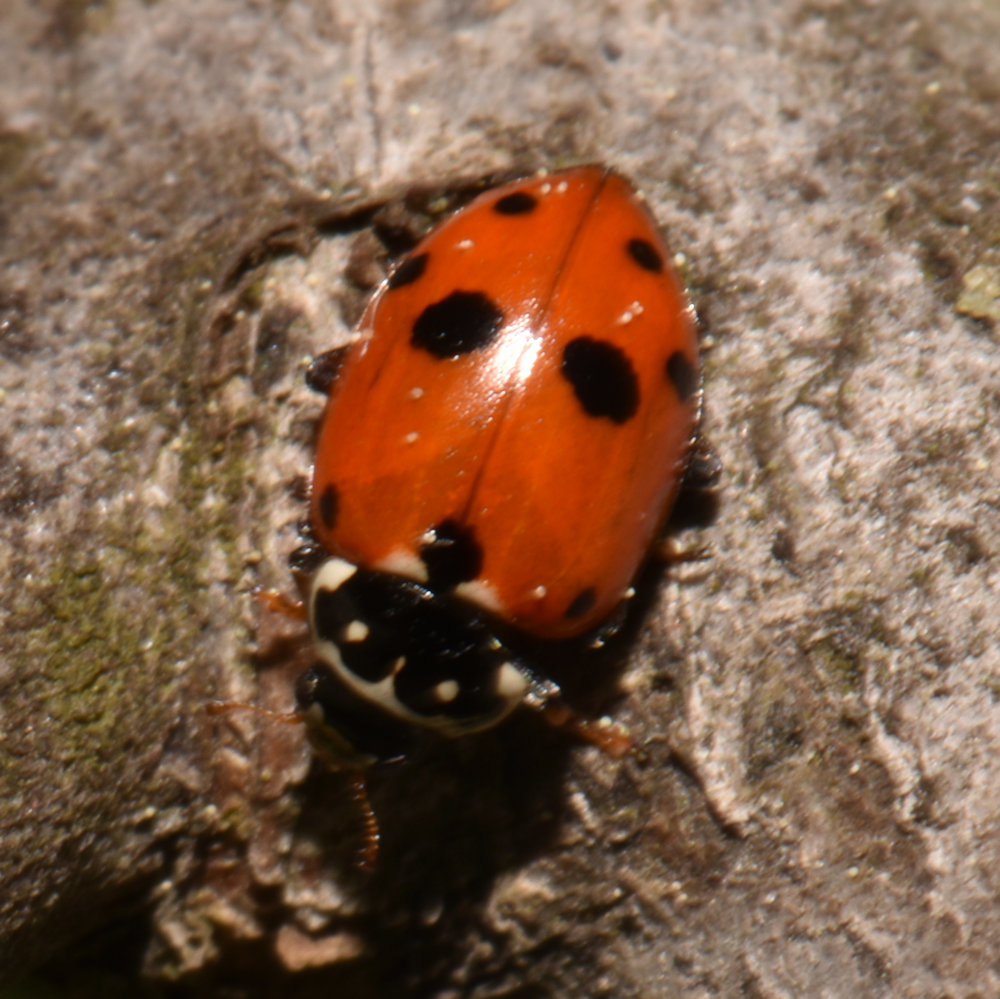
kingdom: Animalia
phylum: Arthropoda
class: Insecta
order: Coleoptera
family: Coccinellidae
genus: Hippodamia
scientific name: Hippodamia variegata
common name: Ladybird beetle
